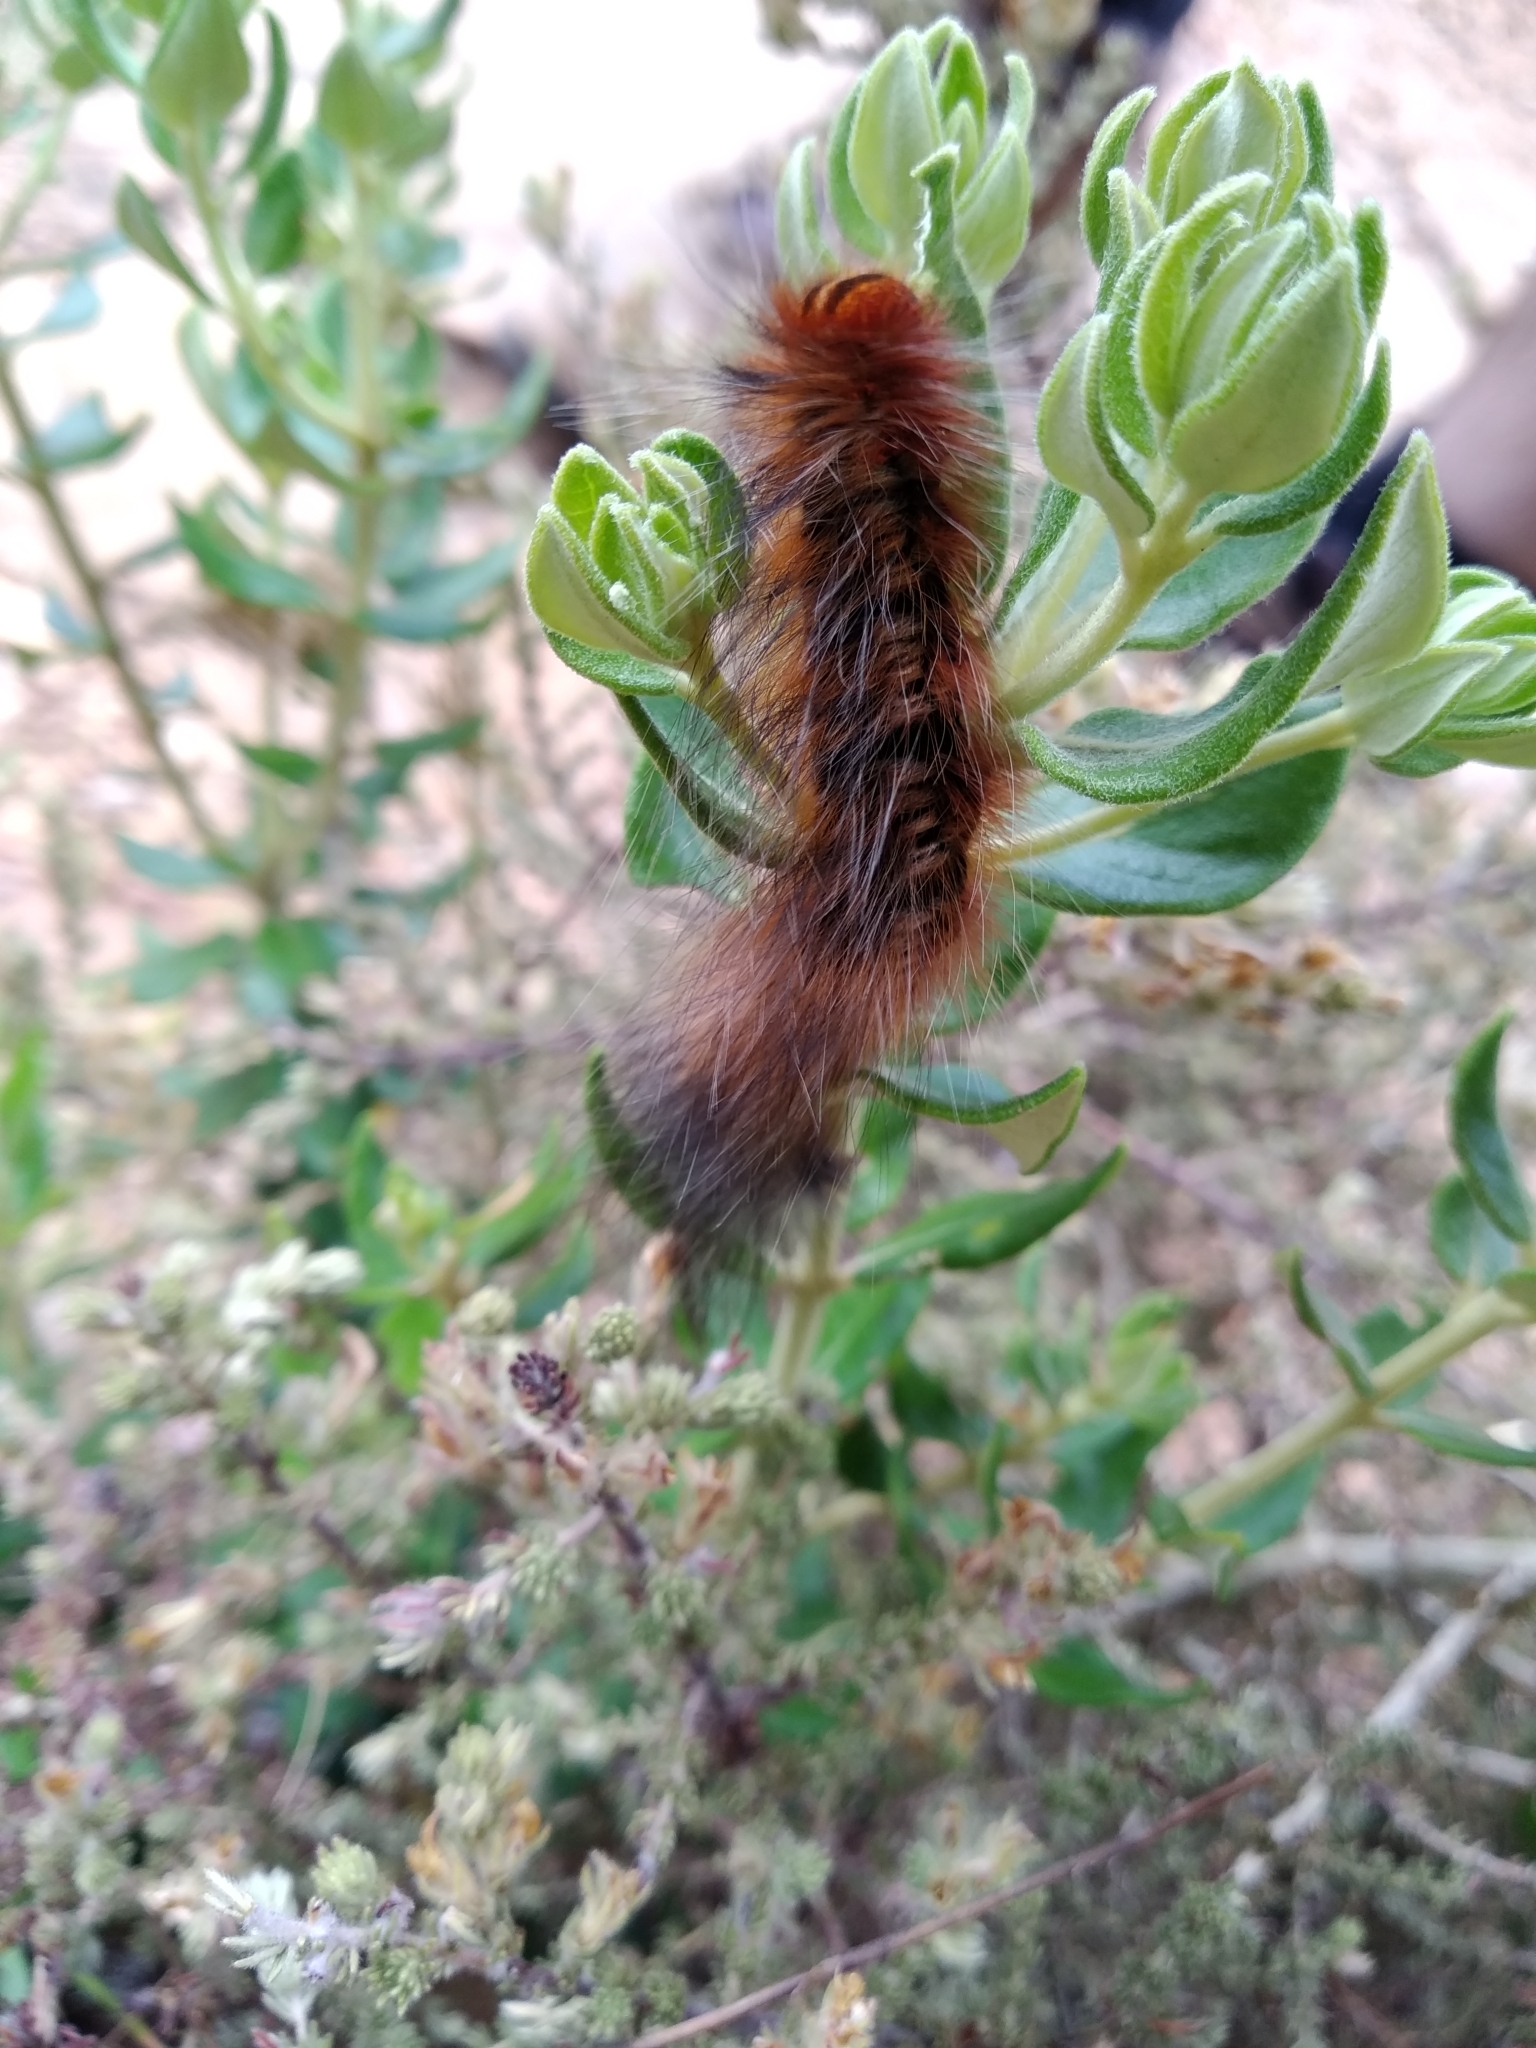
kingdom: Animalia
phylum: Arthropoda
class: Insecta
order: Lepidoptera
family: Lasiocampidae
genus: Mesocelis
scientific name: Mesocelis monticola
